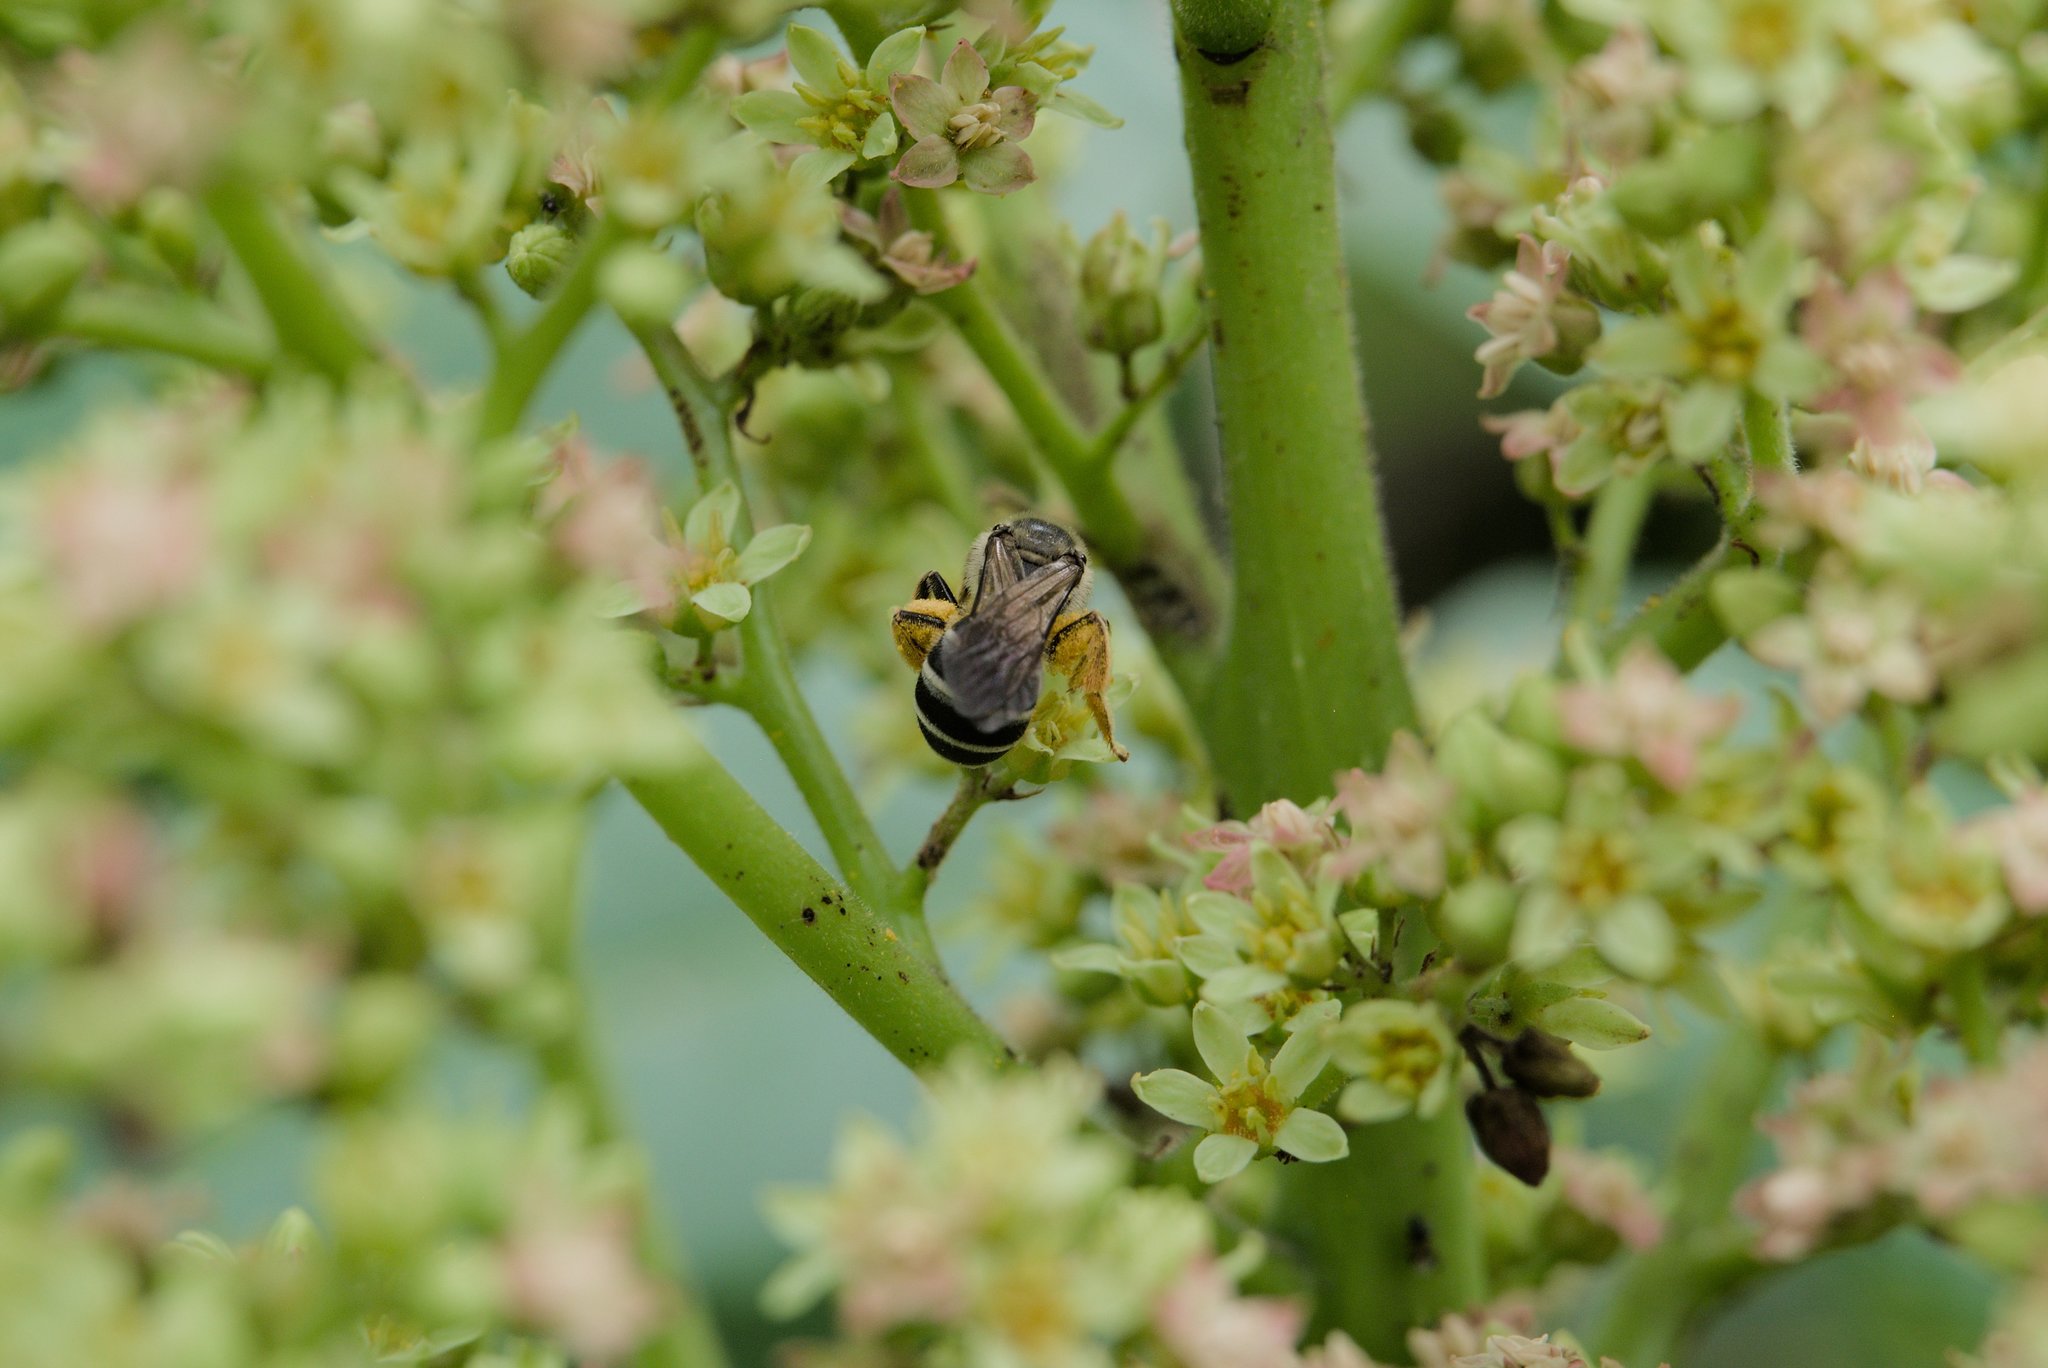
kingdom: Animalia
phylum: Arthropoda
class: Insecta
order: Hymenoptera
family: Halictidae
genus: Halictus
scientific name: Halictus rubicundus
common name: Orange-legged furrow bee
